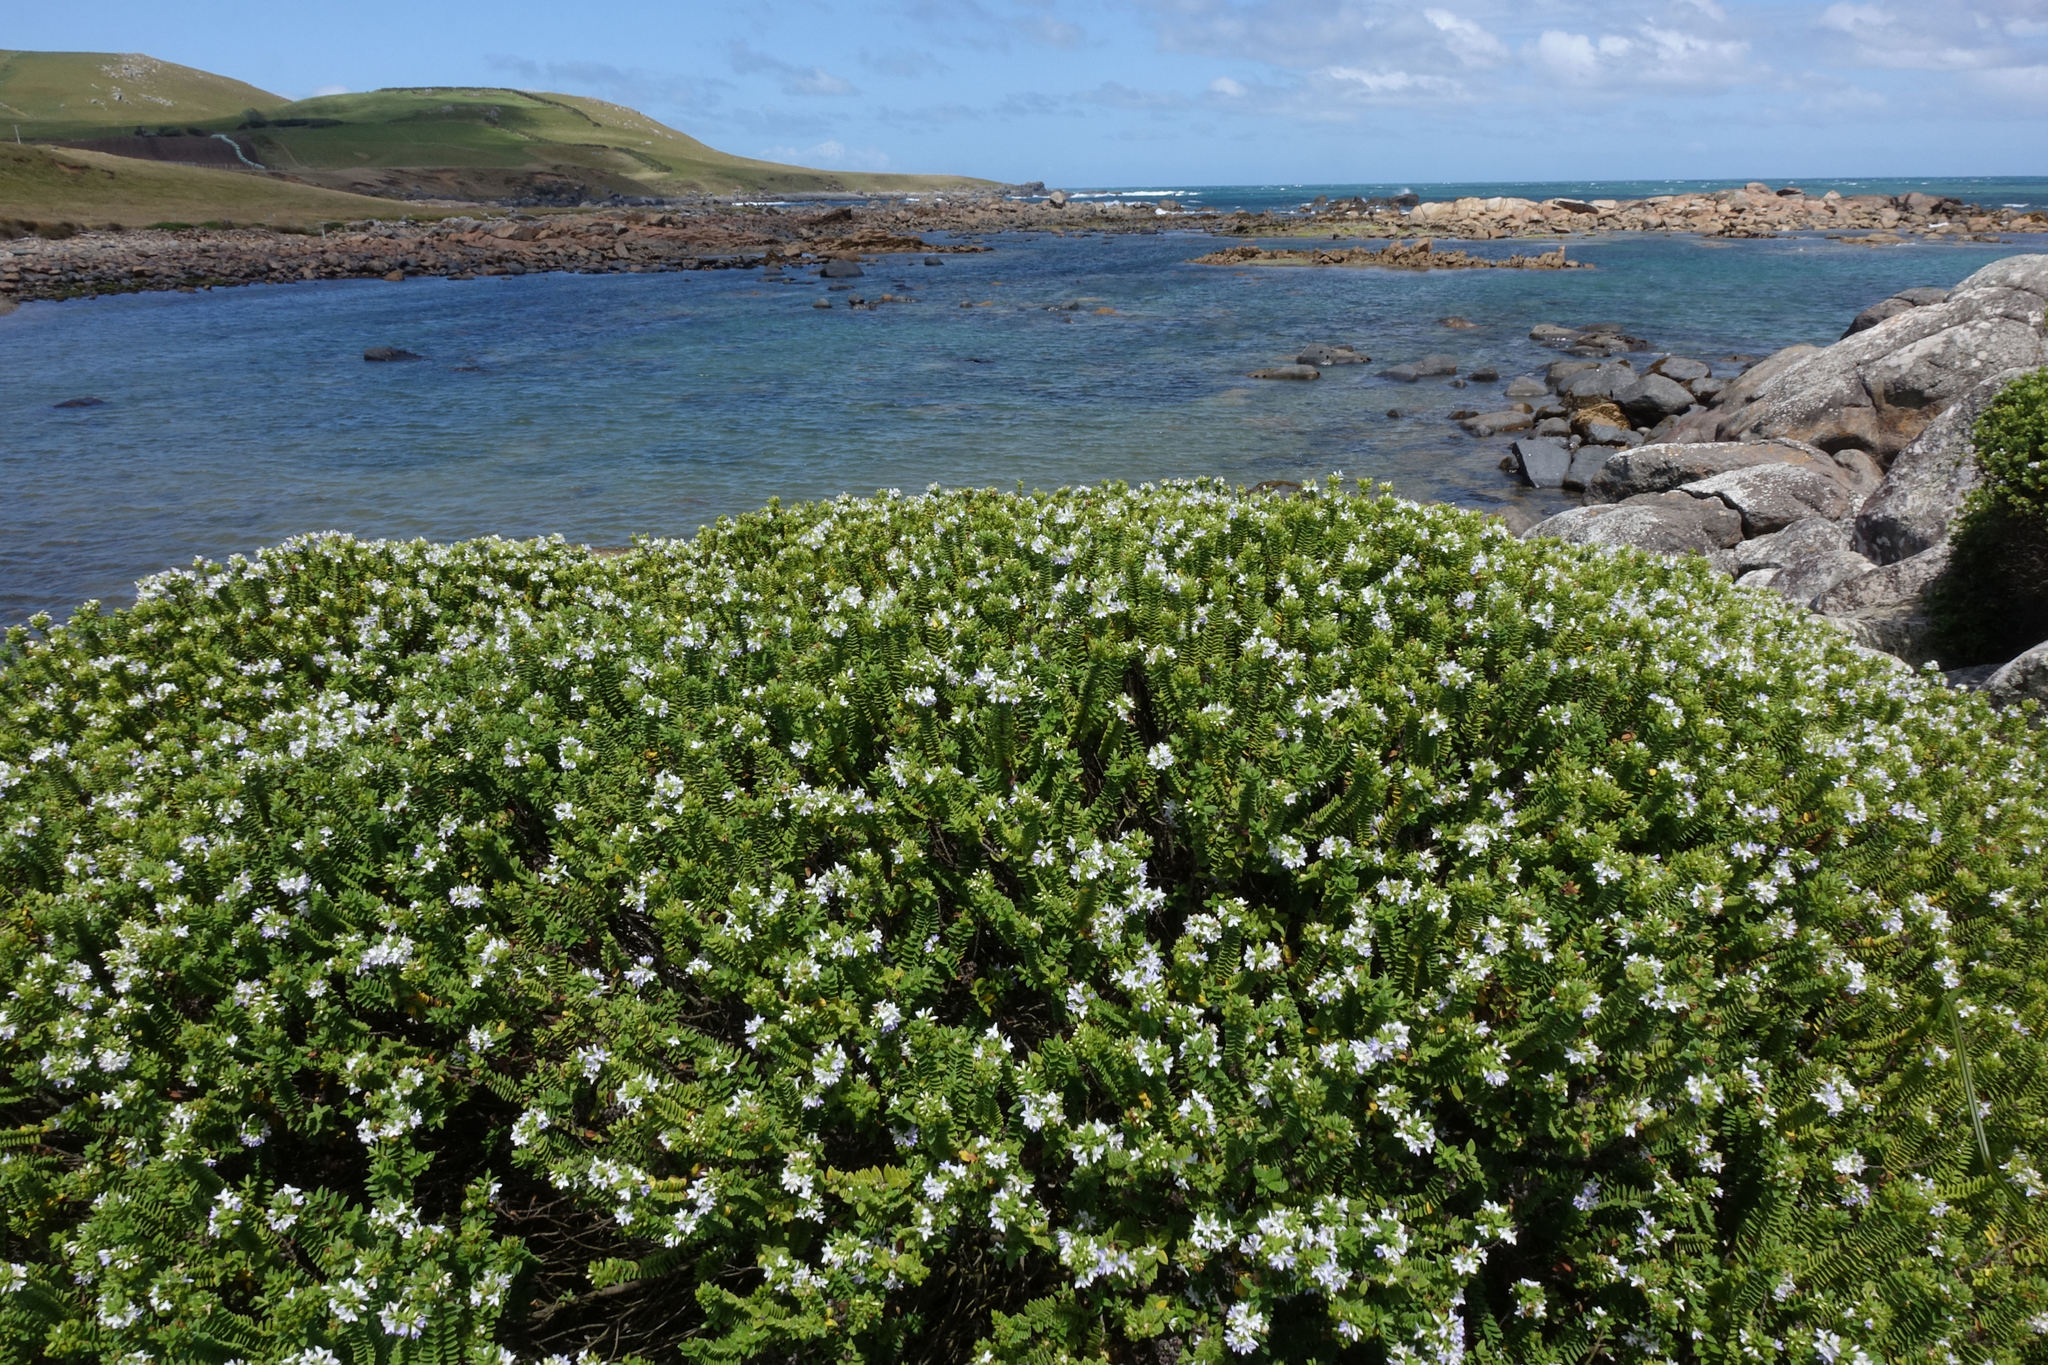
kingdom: Plantae
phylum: Tracheophyta
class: Magnoliopsida
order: Lamiales
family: Plantaginaceae
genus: Veronica
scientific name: Veronica elliptica
